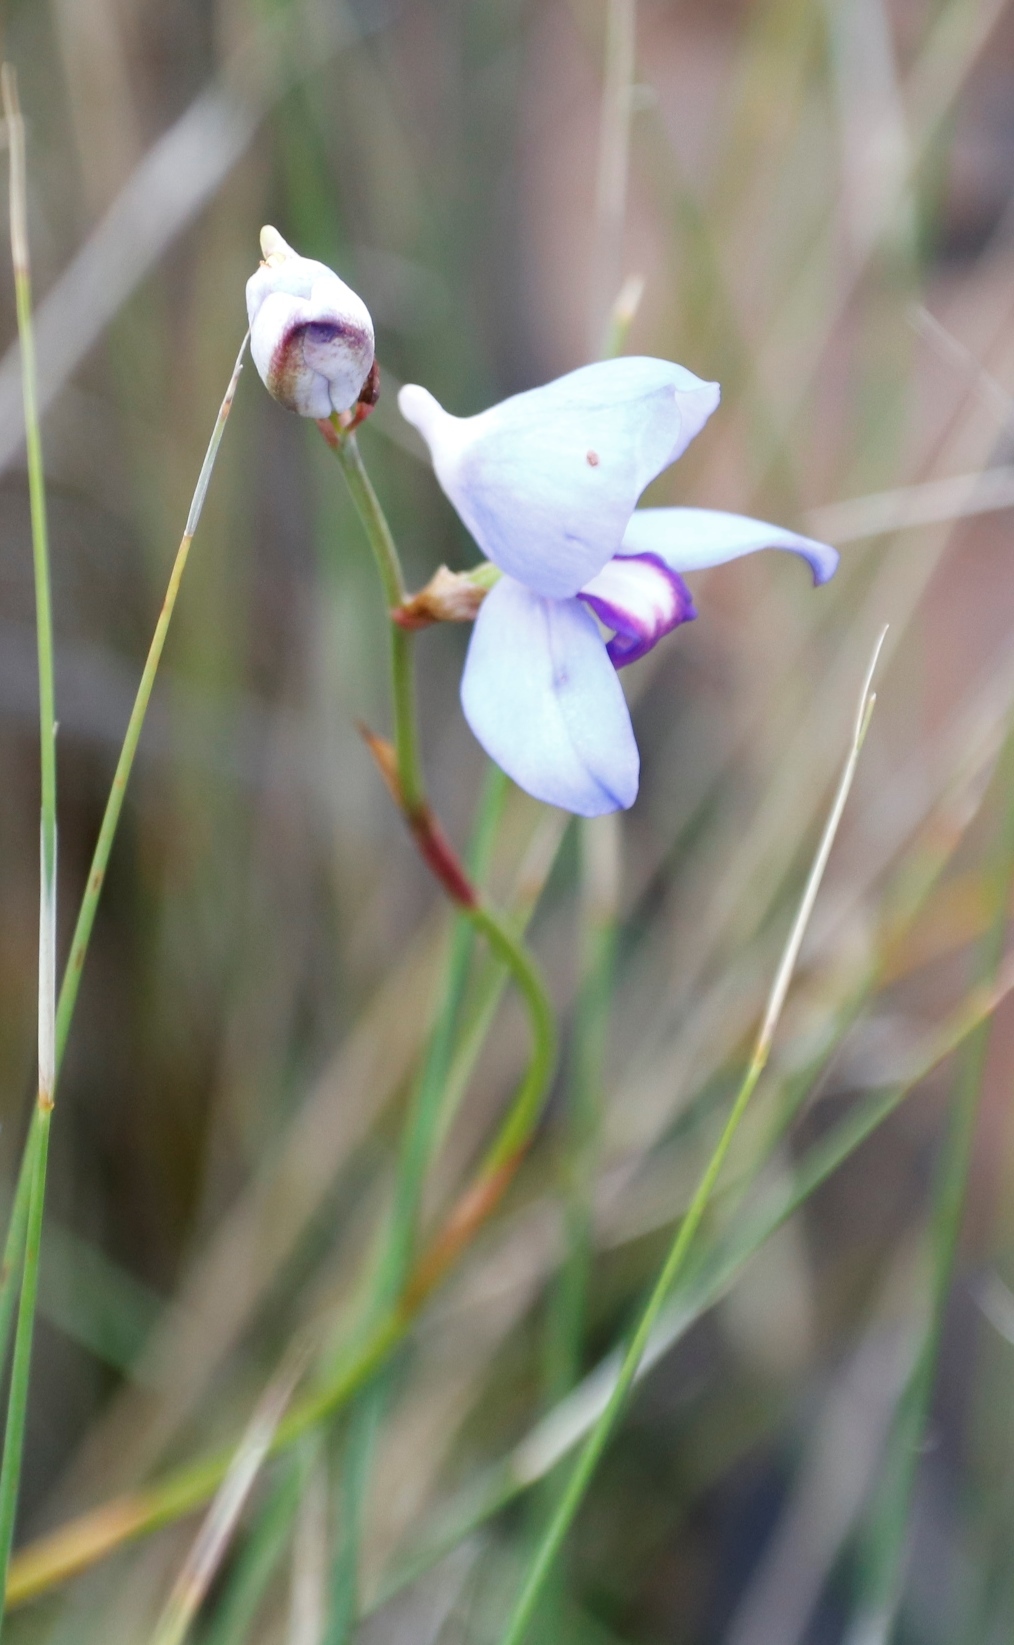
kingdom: Plantae
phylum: Tracheophyta
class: Liliopsida
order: Asparagales
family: Orchidaceae
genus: Disa
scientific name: Disa graminifolia
